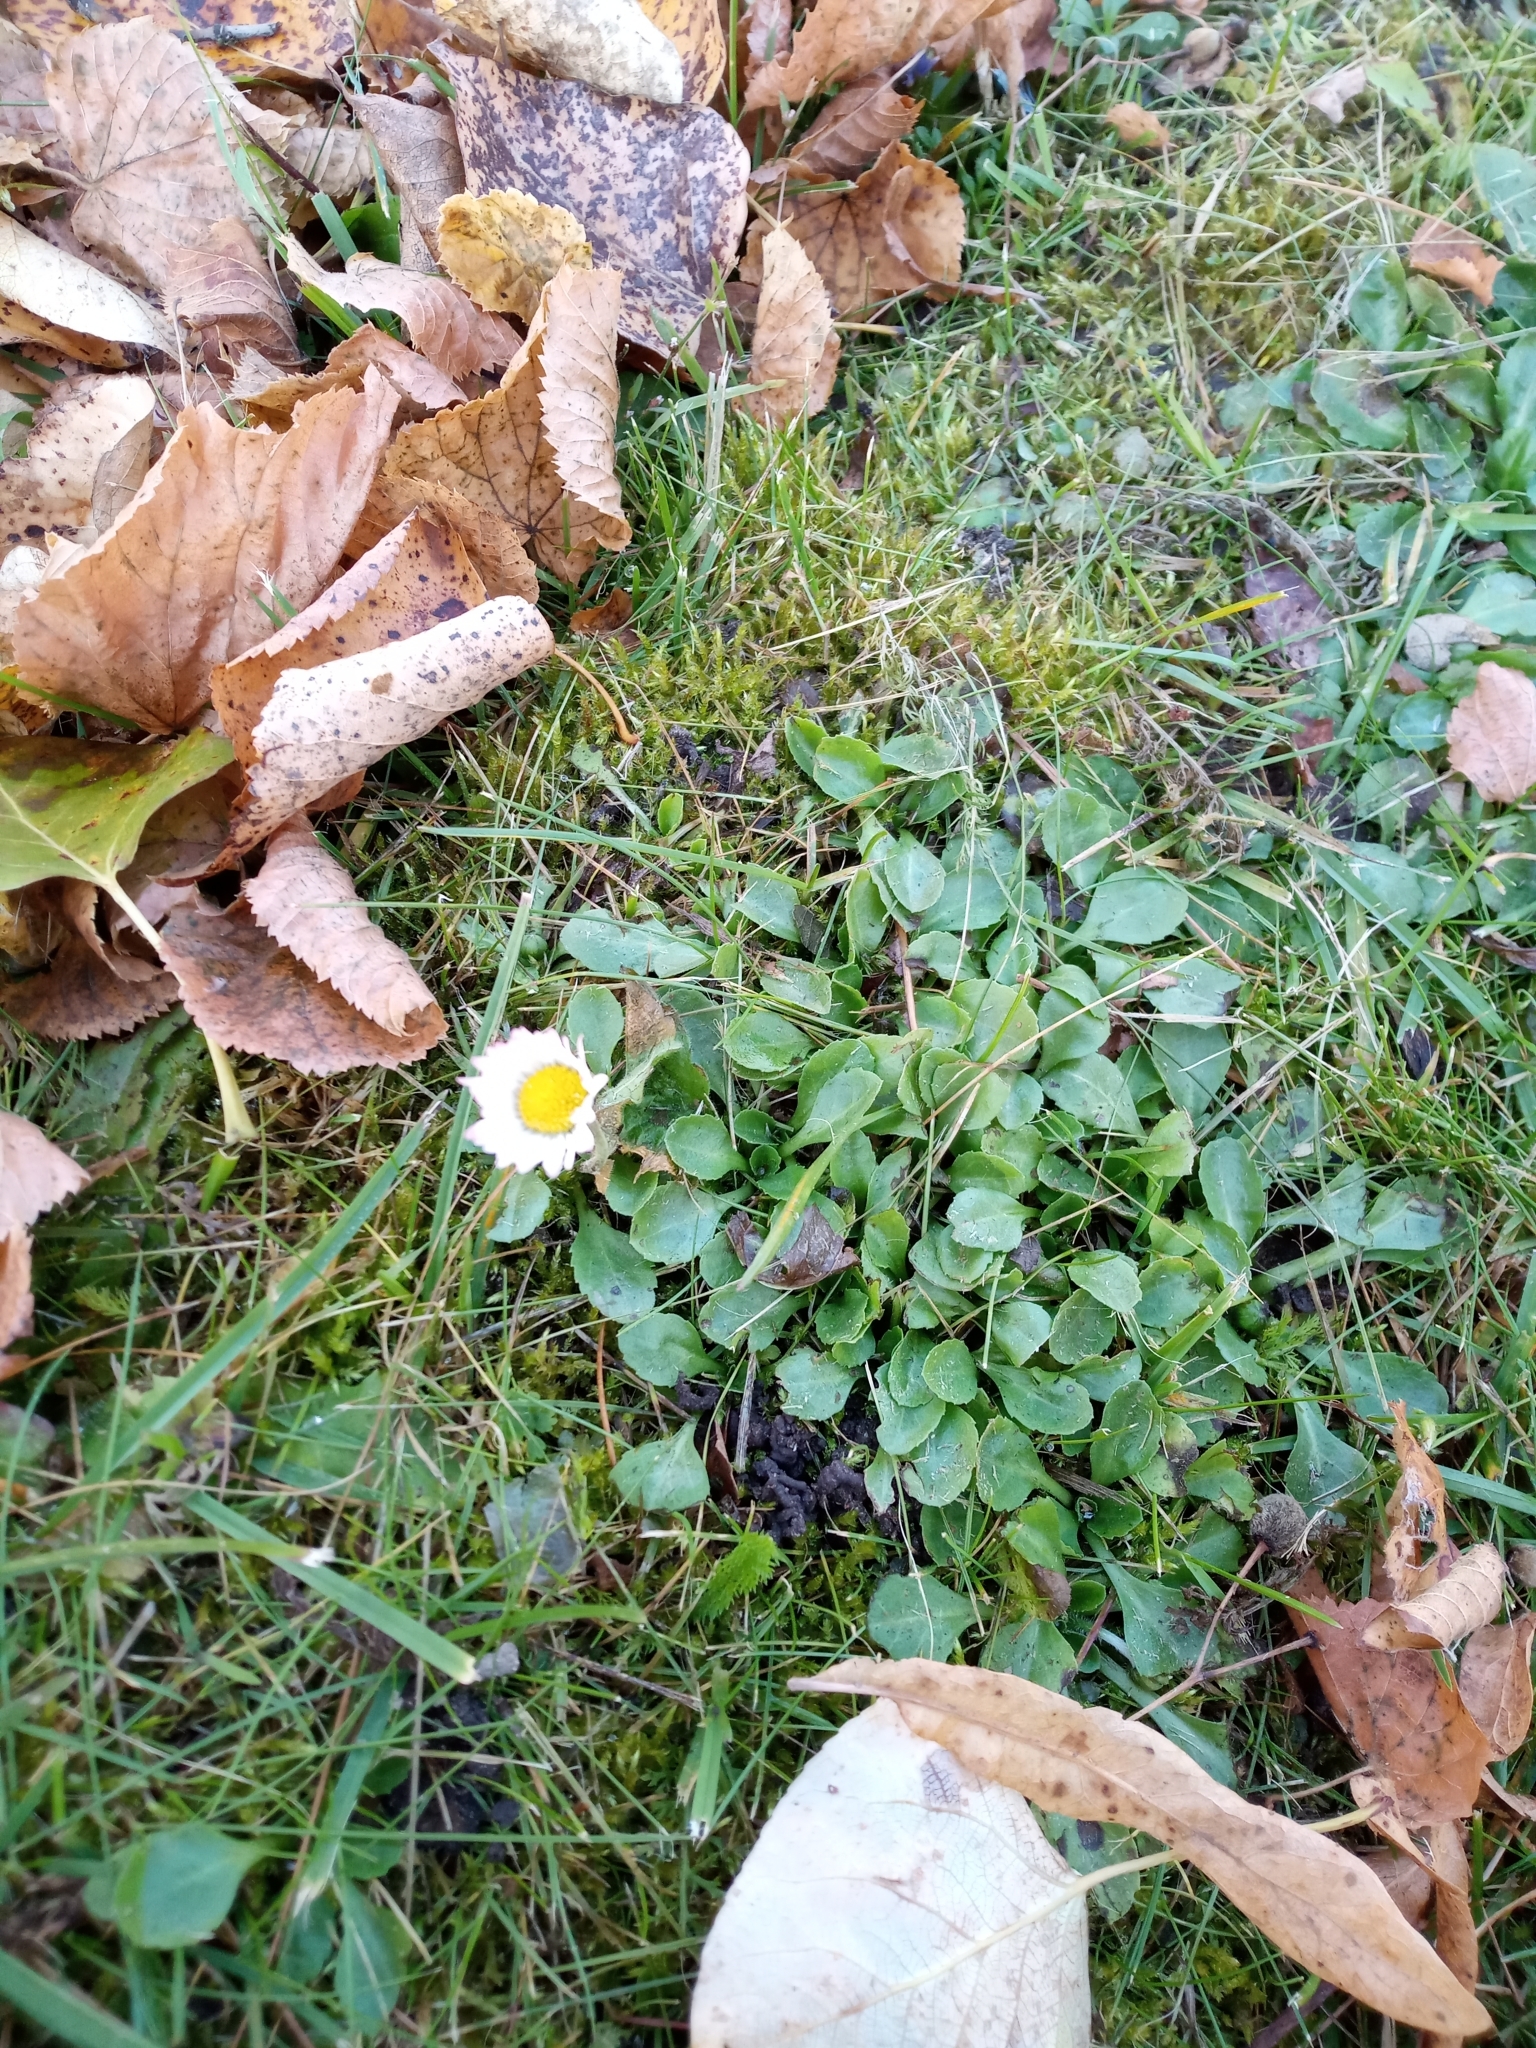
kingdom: Plantae
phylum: Tracheophyta
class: Magnoliopsida
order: Asterales
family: Asteraceae
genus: Bellis
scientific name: Bellis perennis
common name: Lawndaisy
